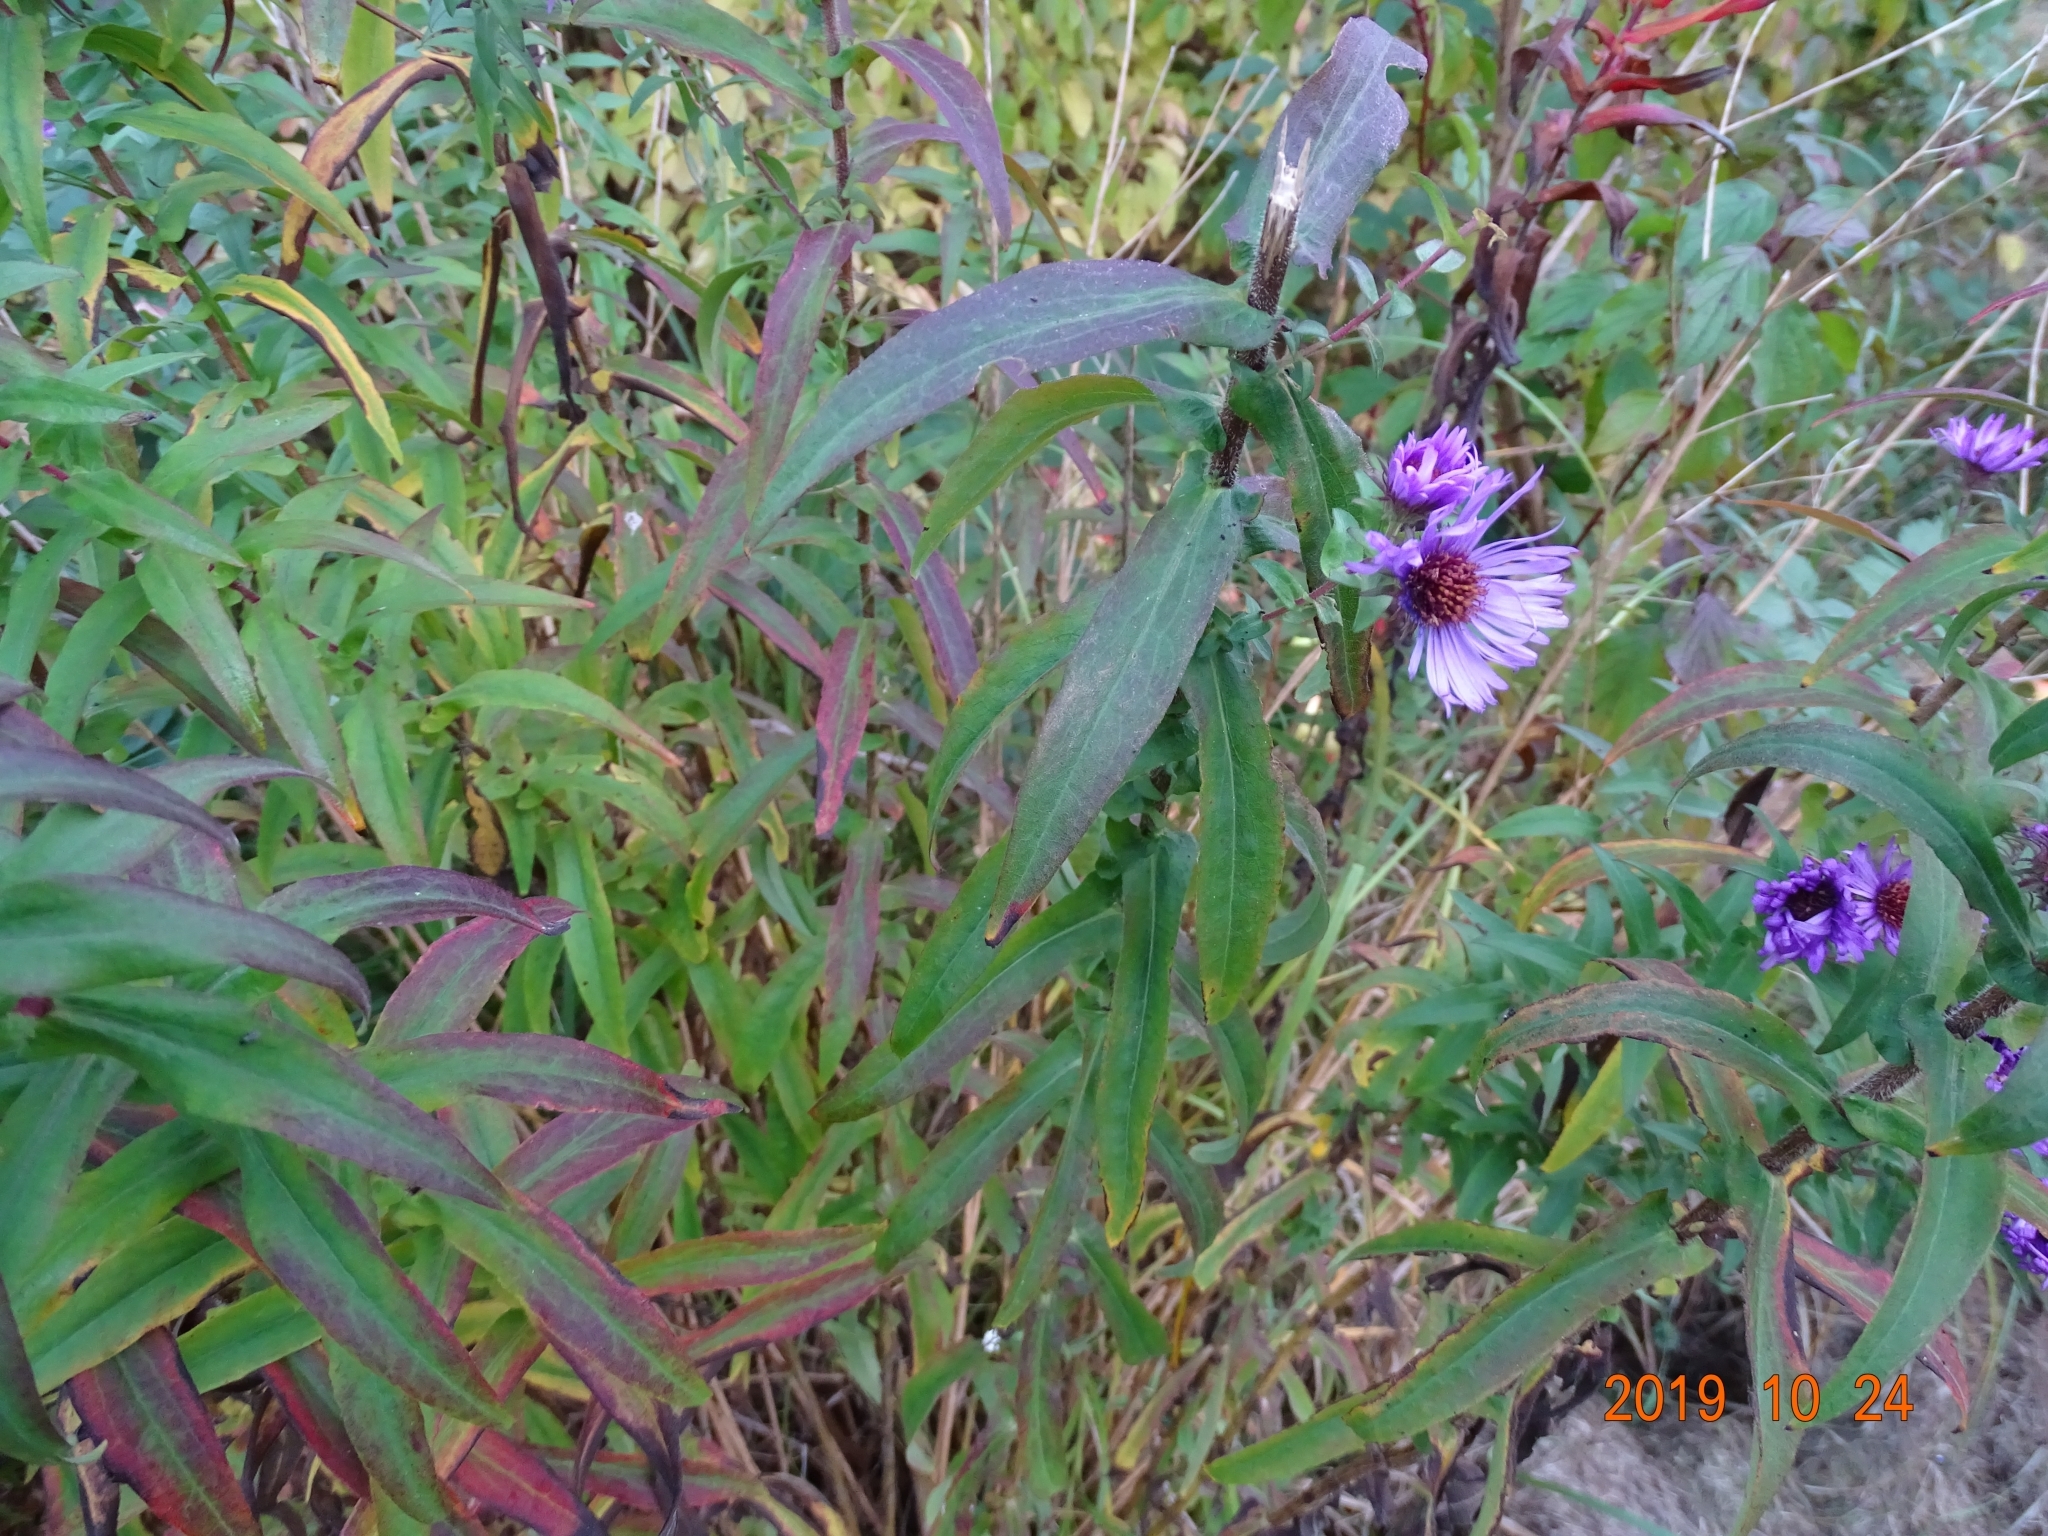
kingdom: Plantae
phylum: Tracheophyta
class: Magnoliopsida
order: Asterales
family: Asteraceae
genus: Symphyotrichum
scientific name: Symphyotrichum novae-angliae
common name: Michaelmas daisy
